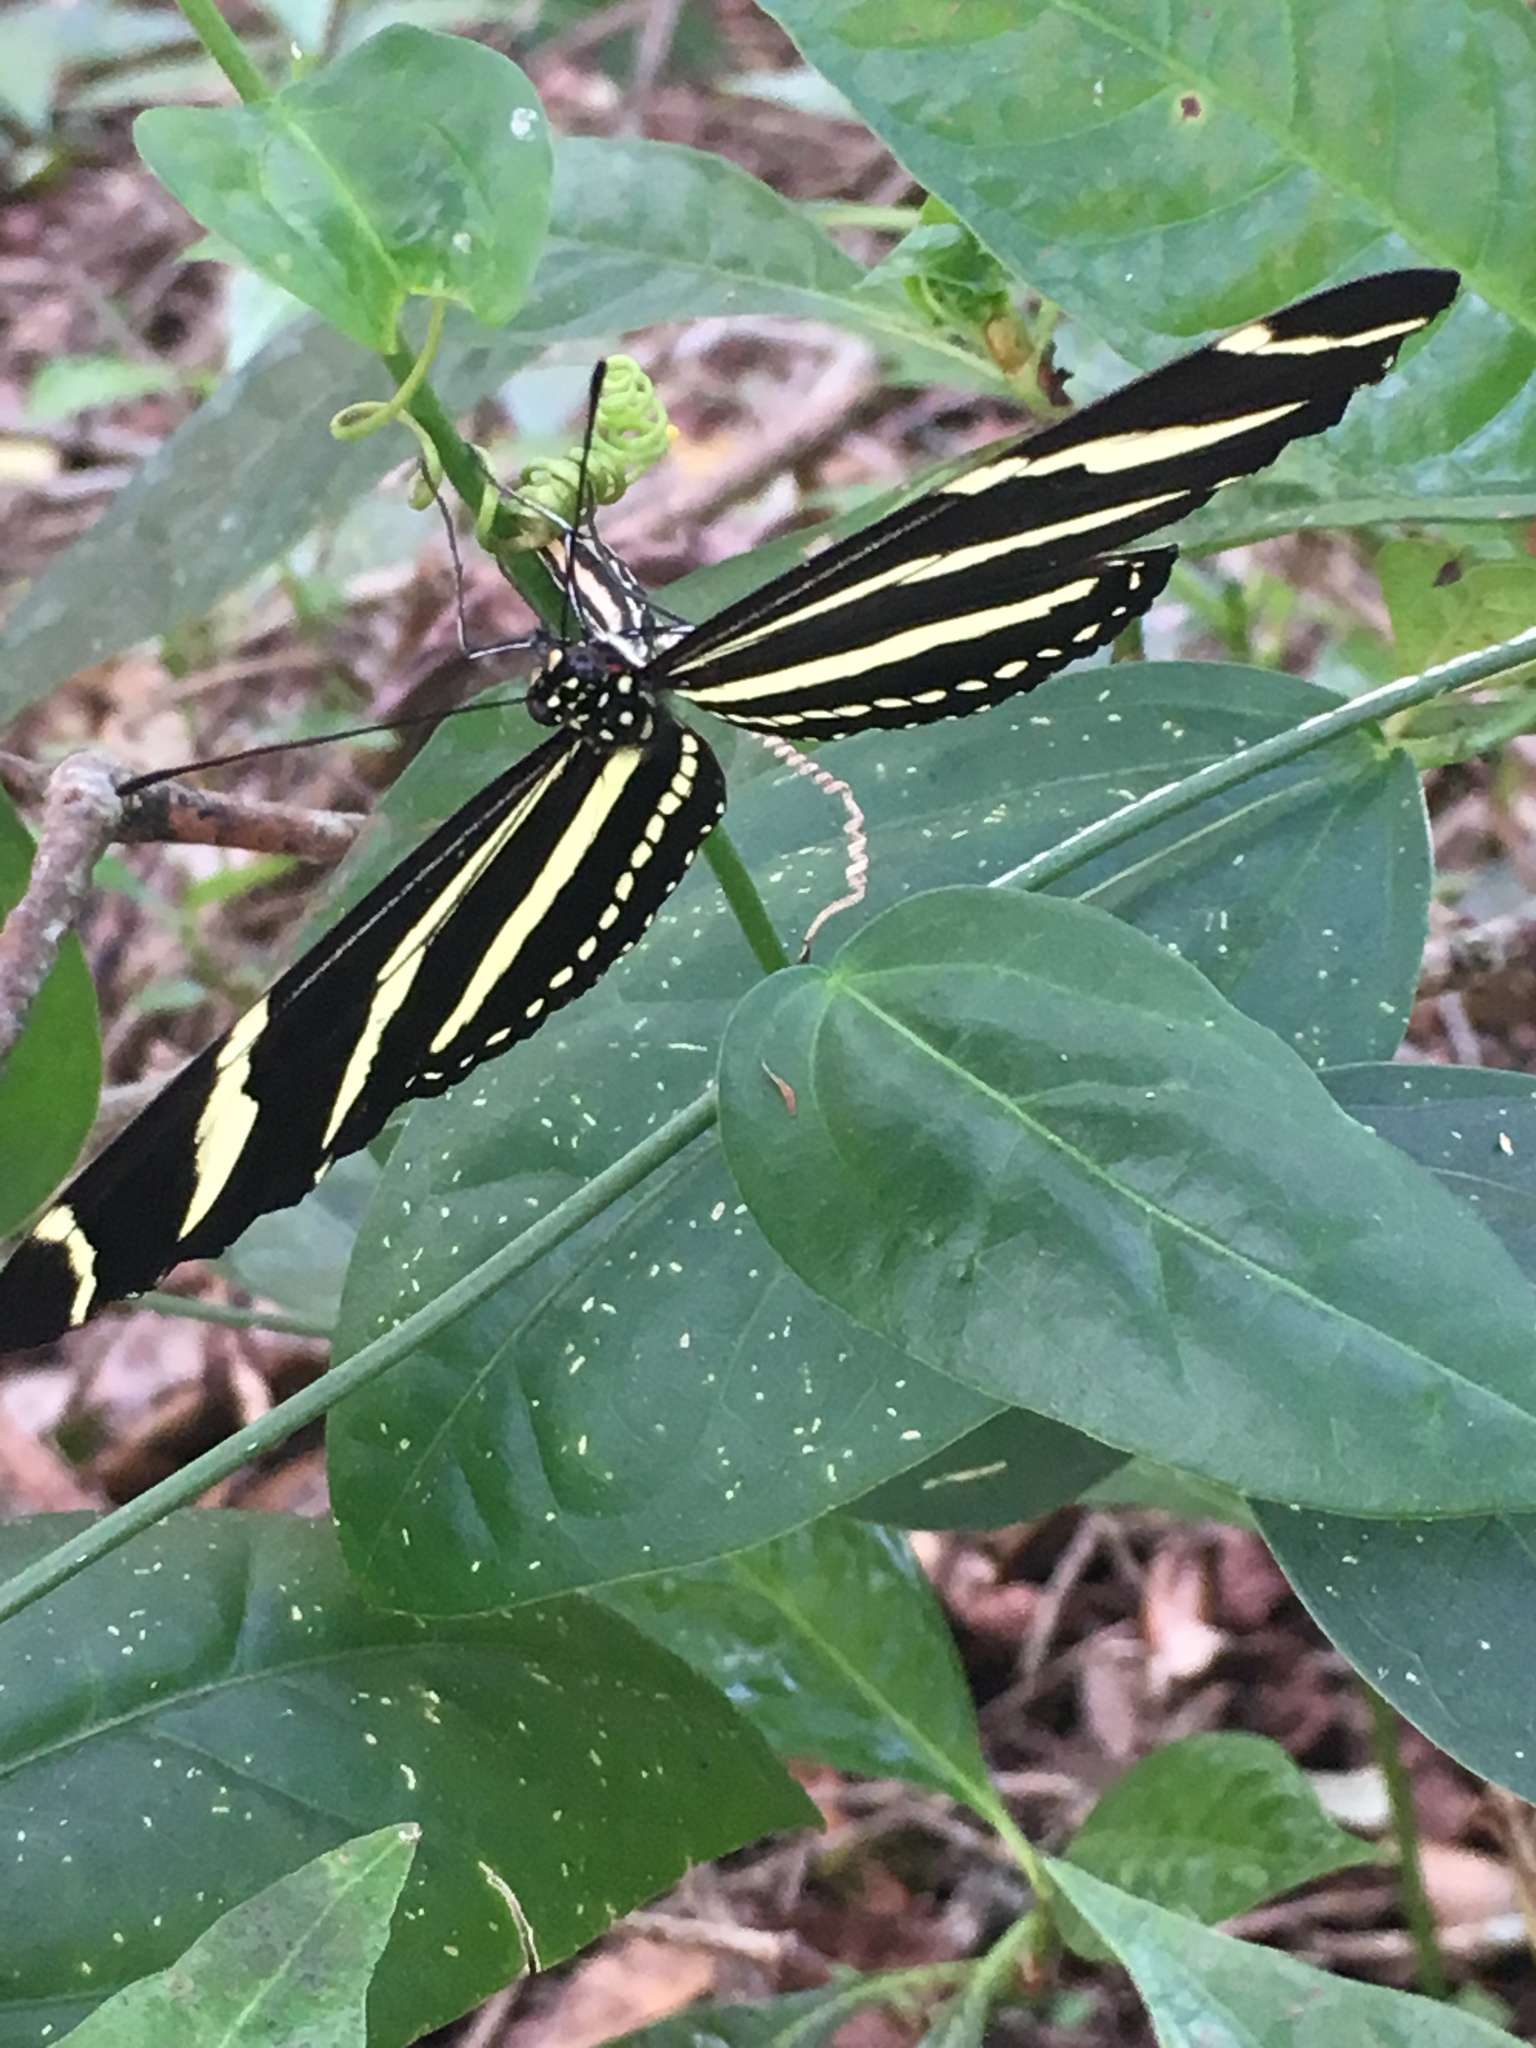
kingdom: Animalia
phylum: Arthropoda
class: Insecta
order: Lepidoptera
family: Nymphalidae
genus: Heliconius
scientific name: Heliconius charithonia
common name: Zebra long wing
